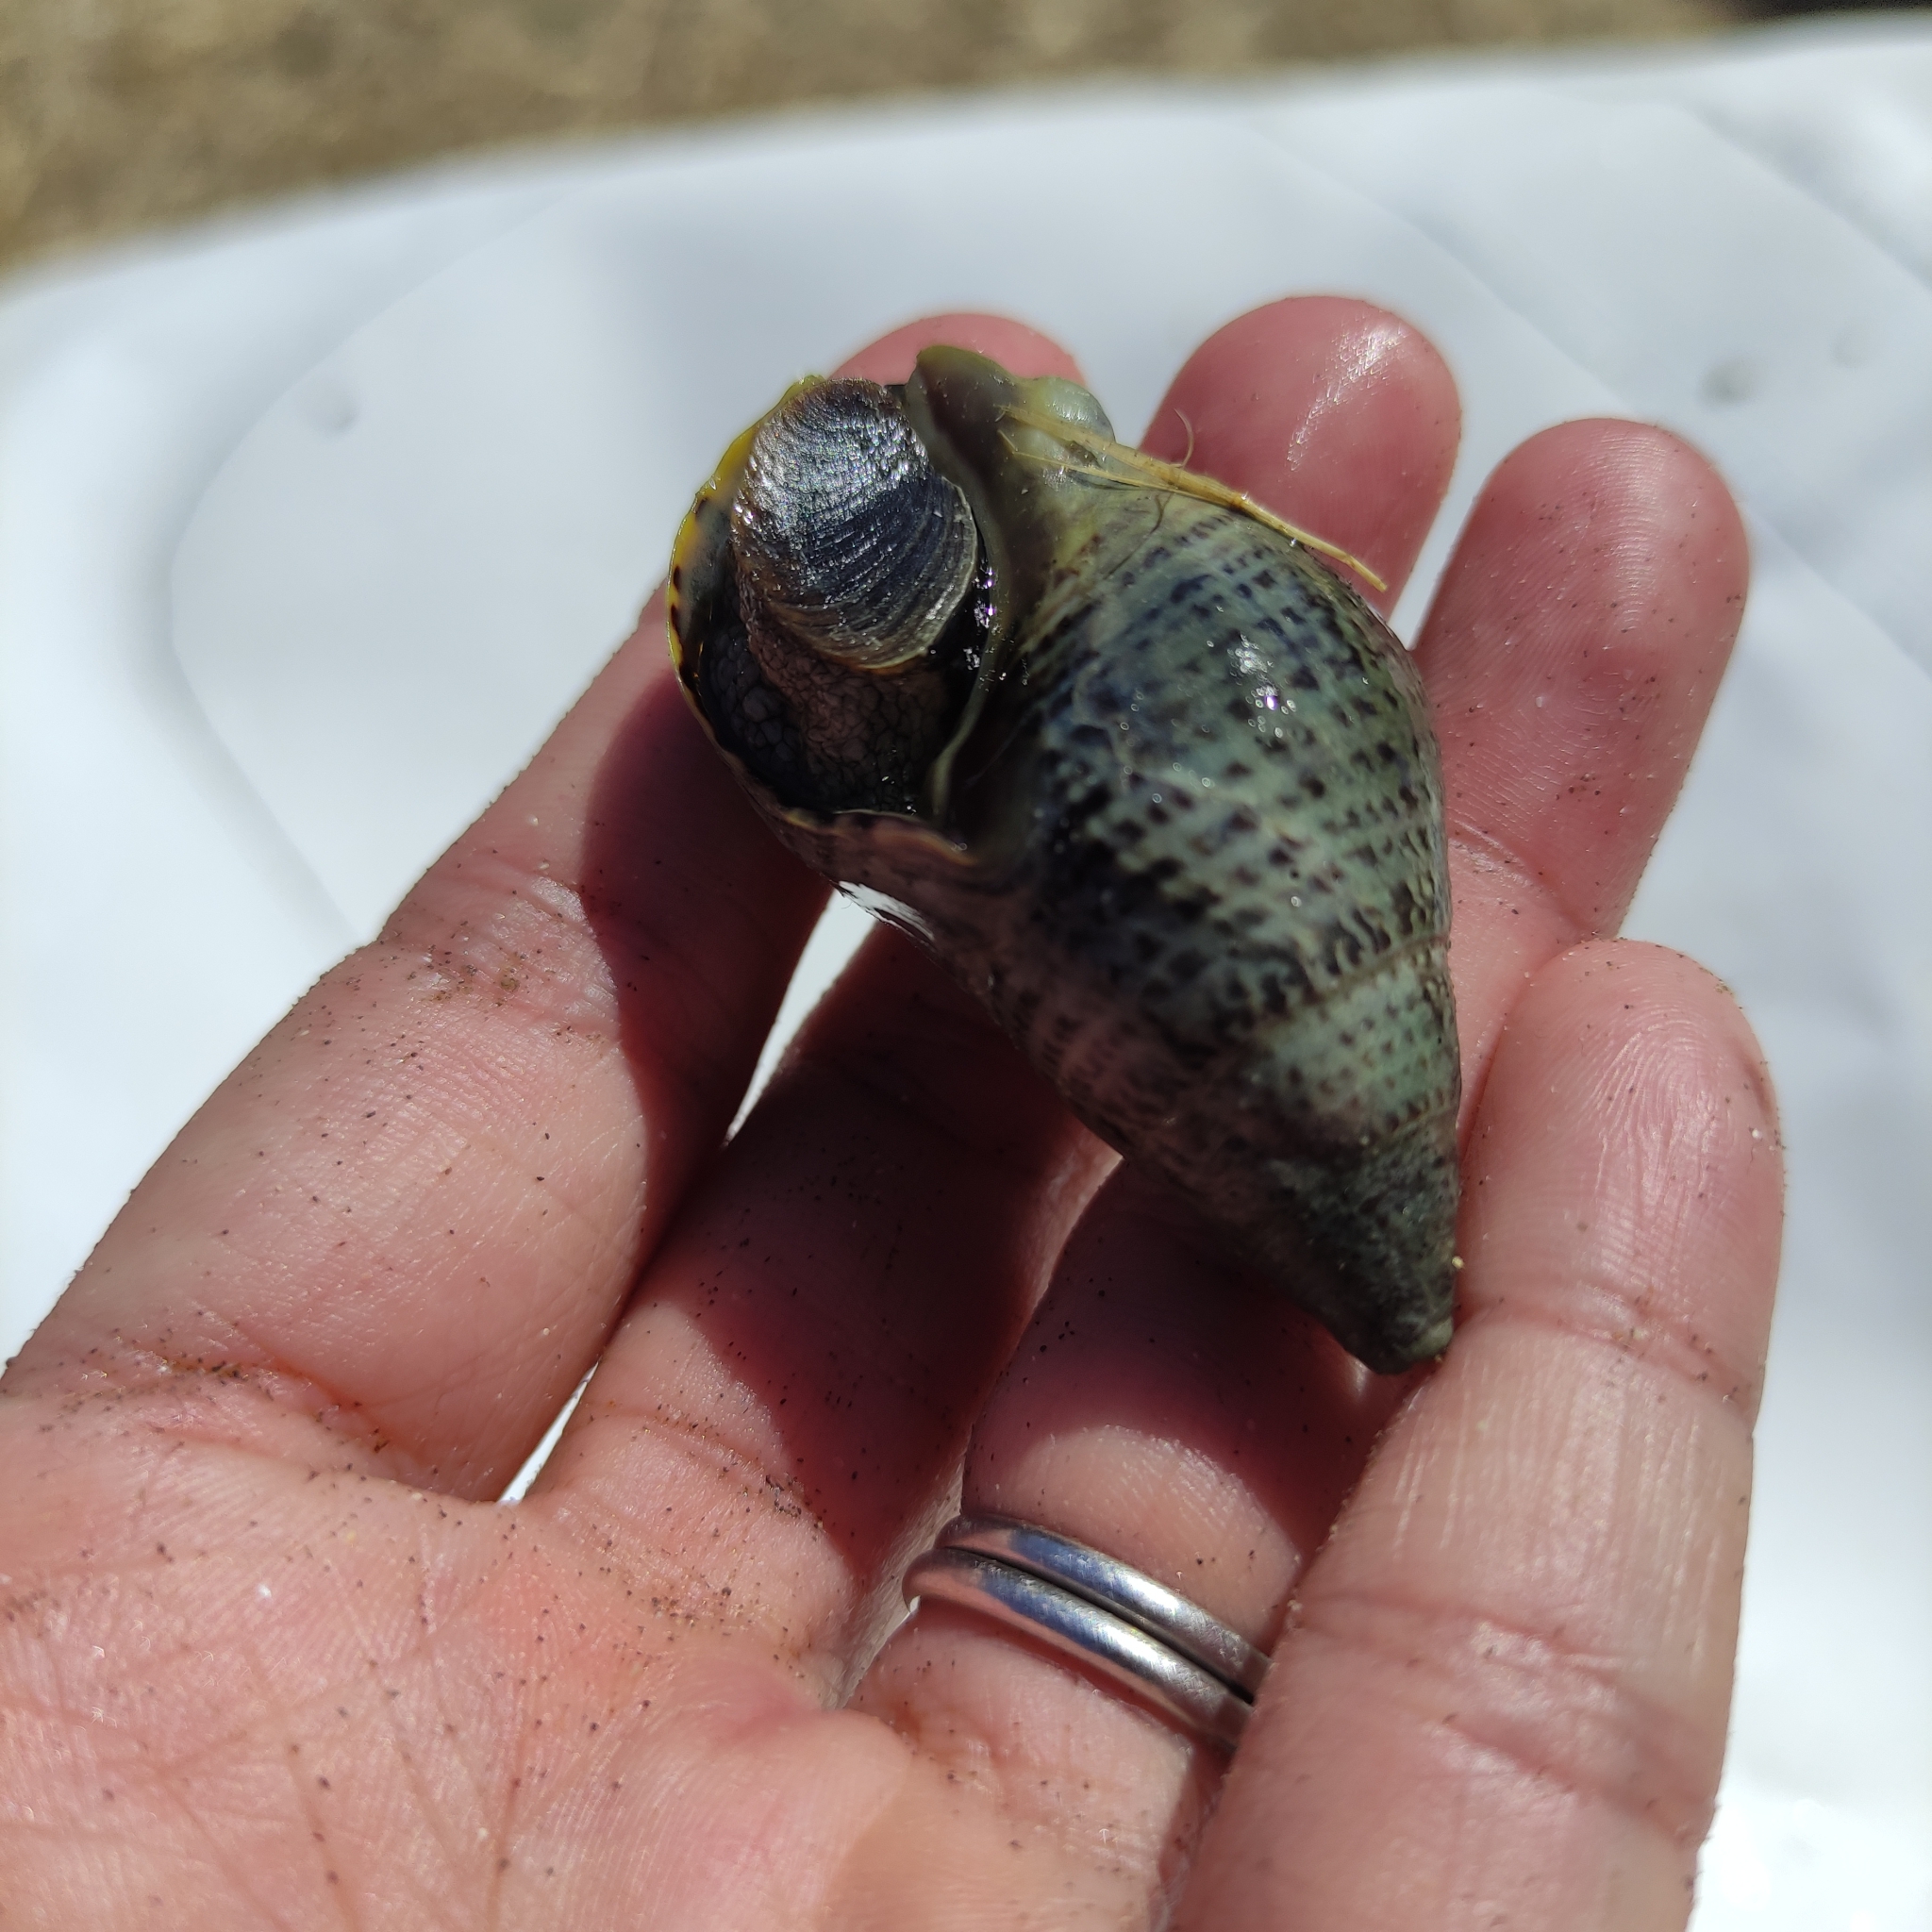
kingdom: Animalia
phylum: Mollusca
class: Gastropoda
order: Neogastropoda
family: Cominellidae
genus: Cominella
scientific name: Cominella maculosa
